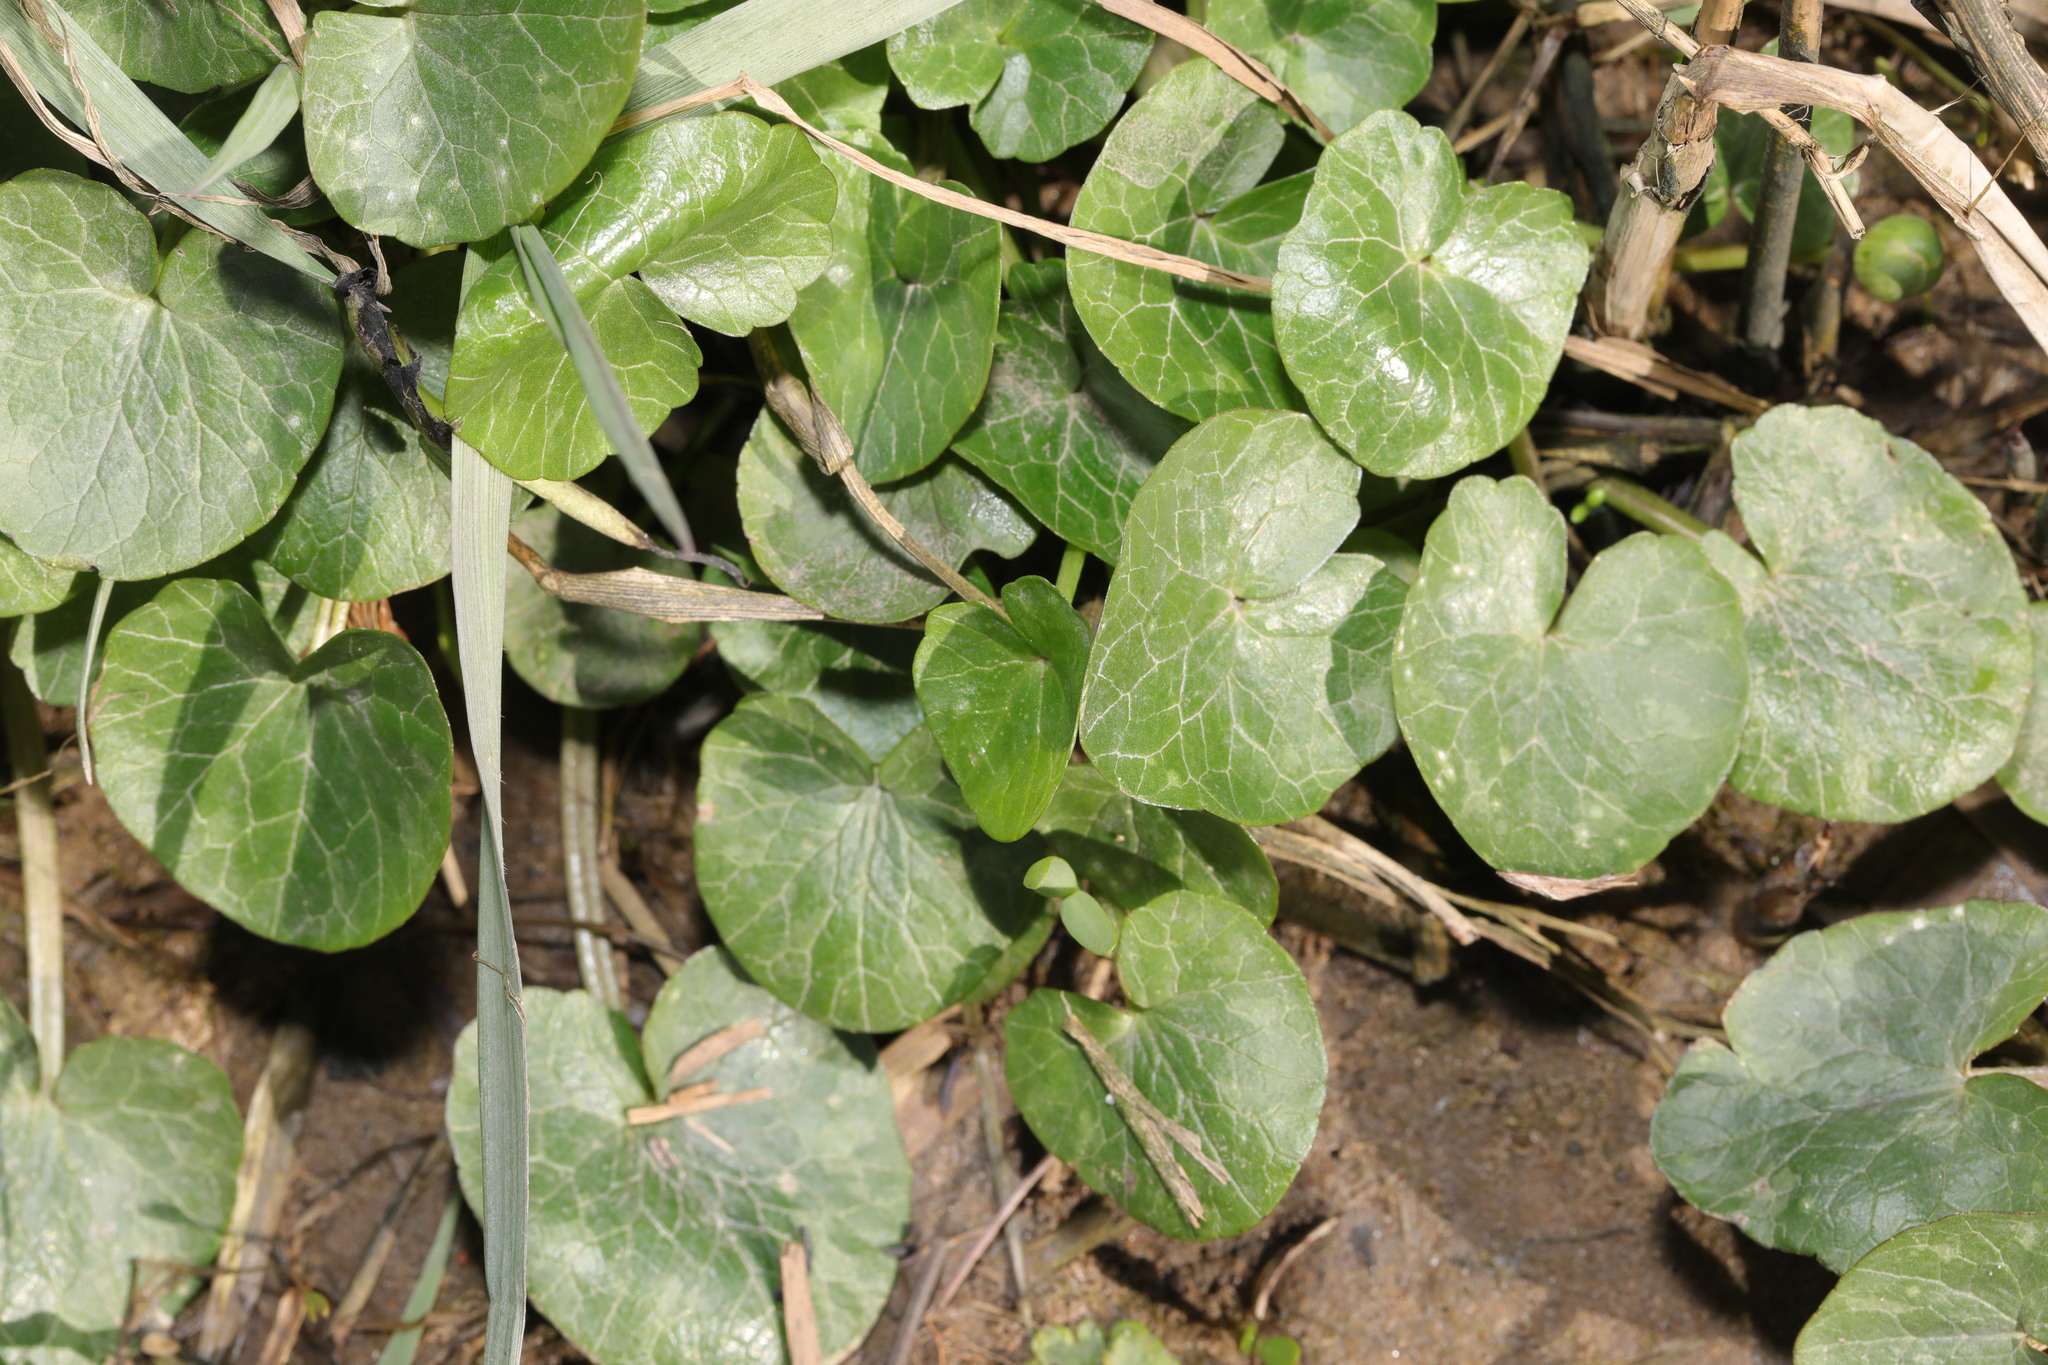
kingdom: Plantae
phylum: Tracheophyta
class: Magnoliopsida
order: Ranunculales
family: Ranunculaceae
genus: Ficaria
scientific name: Ficaria verna
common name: Lesser celandine
